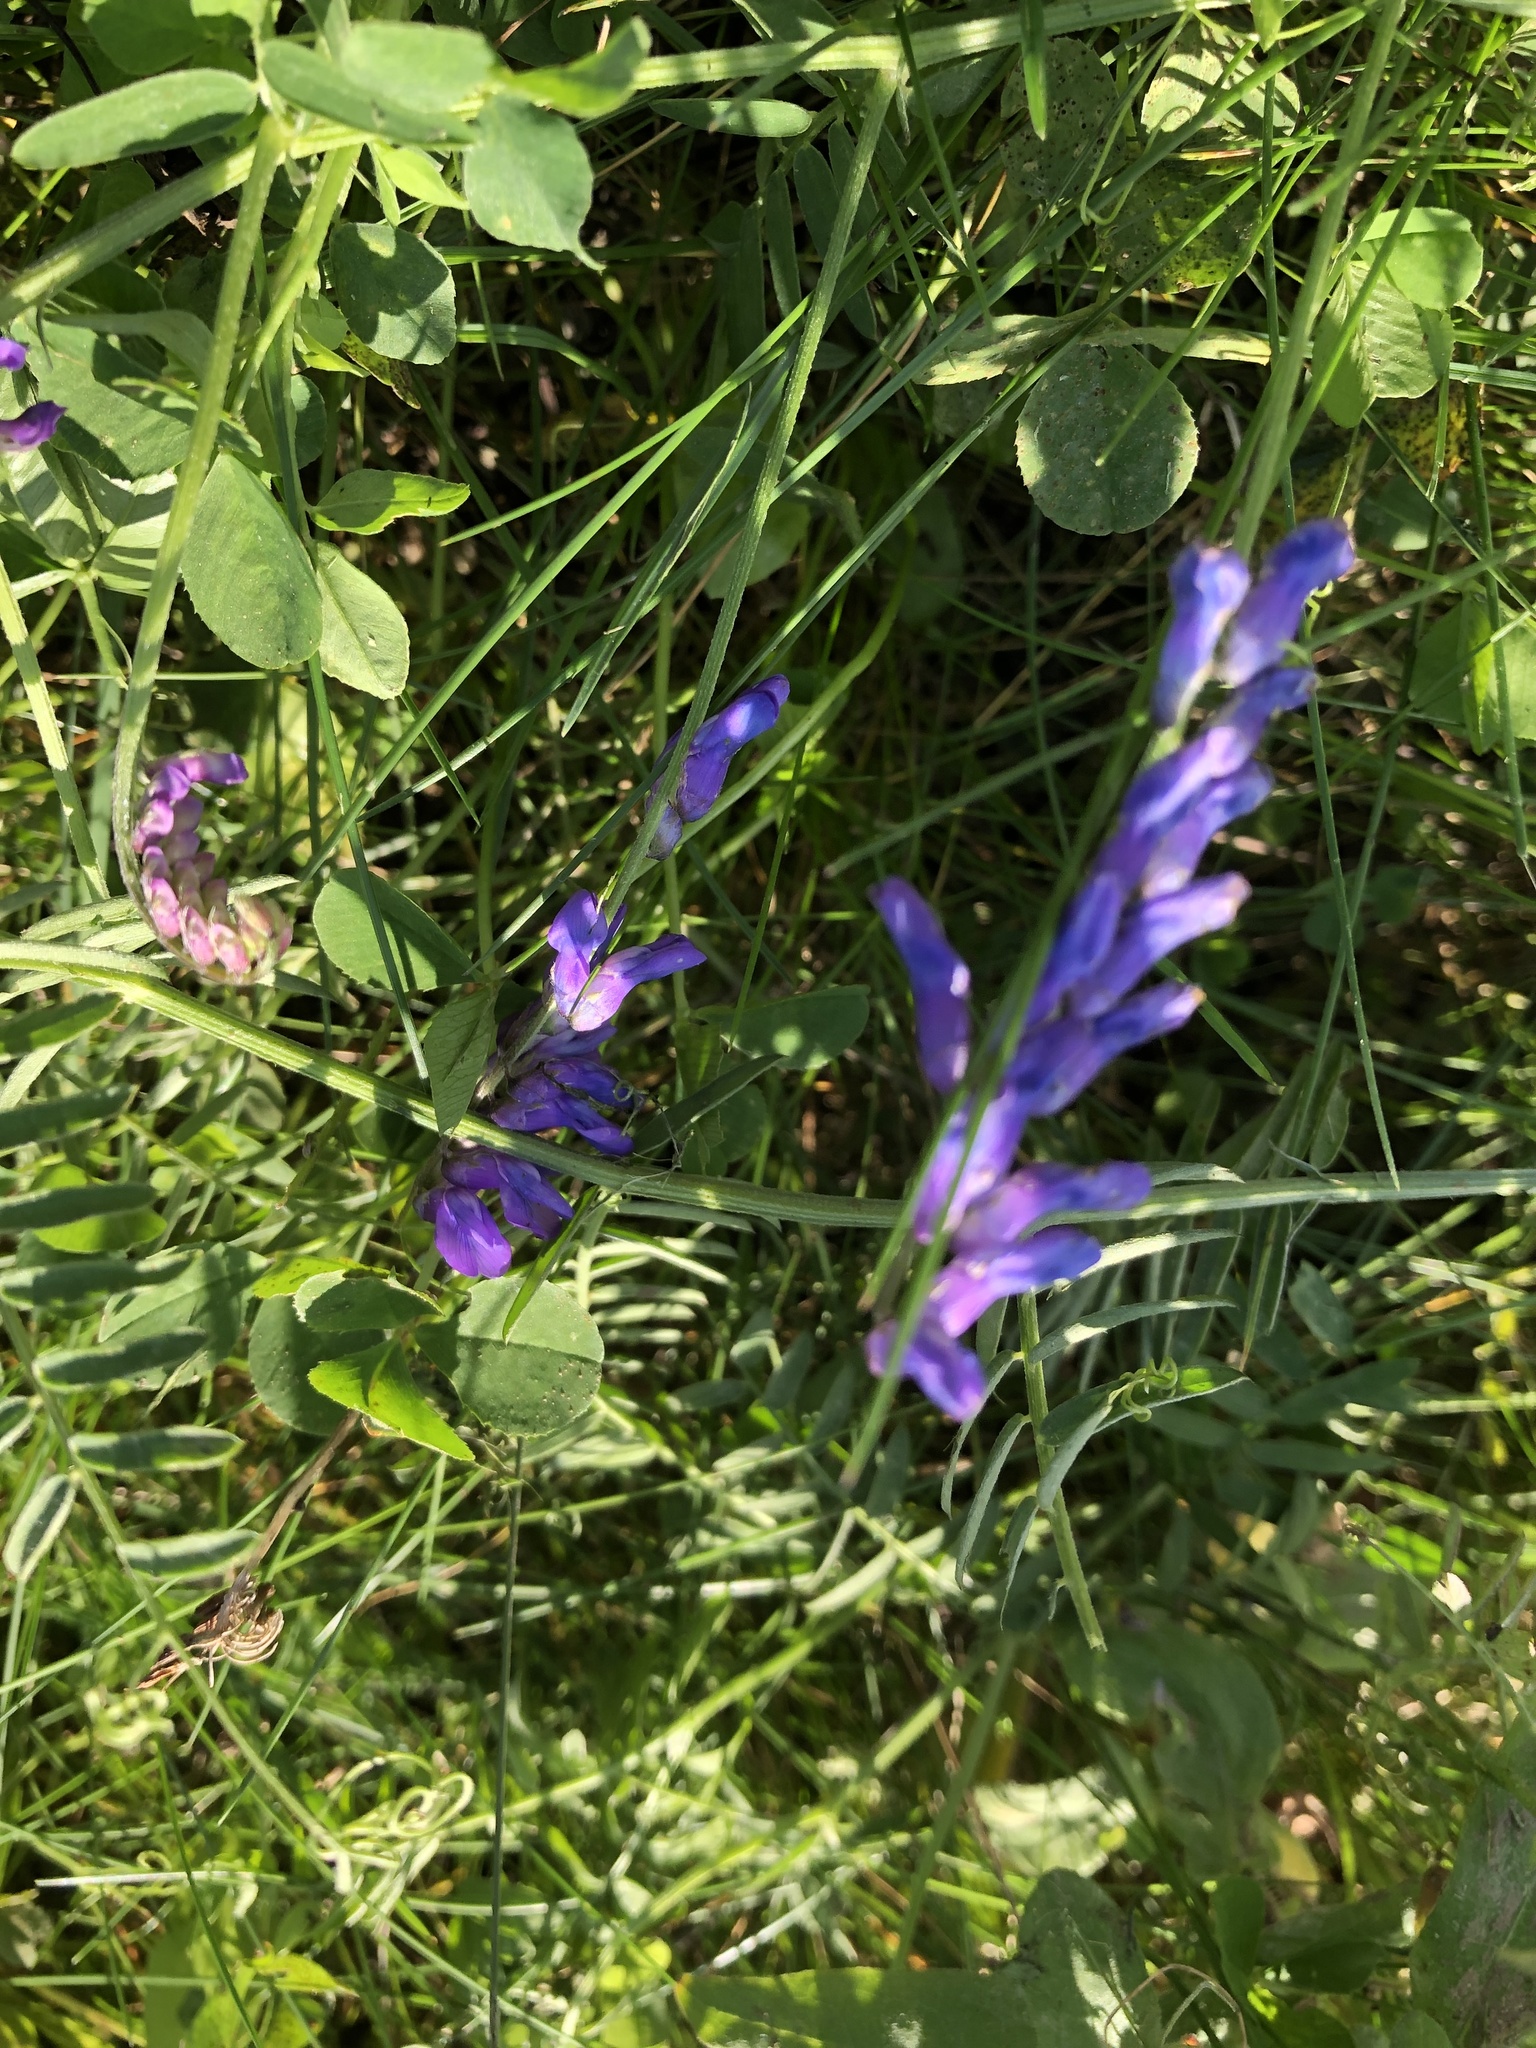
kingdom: Plantae
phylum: Tracheophyta
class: Magnoliopsida
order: Fabales
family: Fabaceae
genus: Vicia
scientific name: Vicia cracca
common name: Bird vetch
